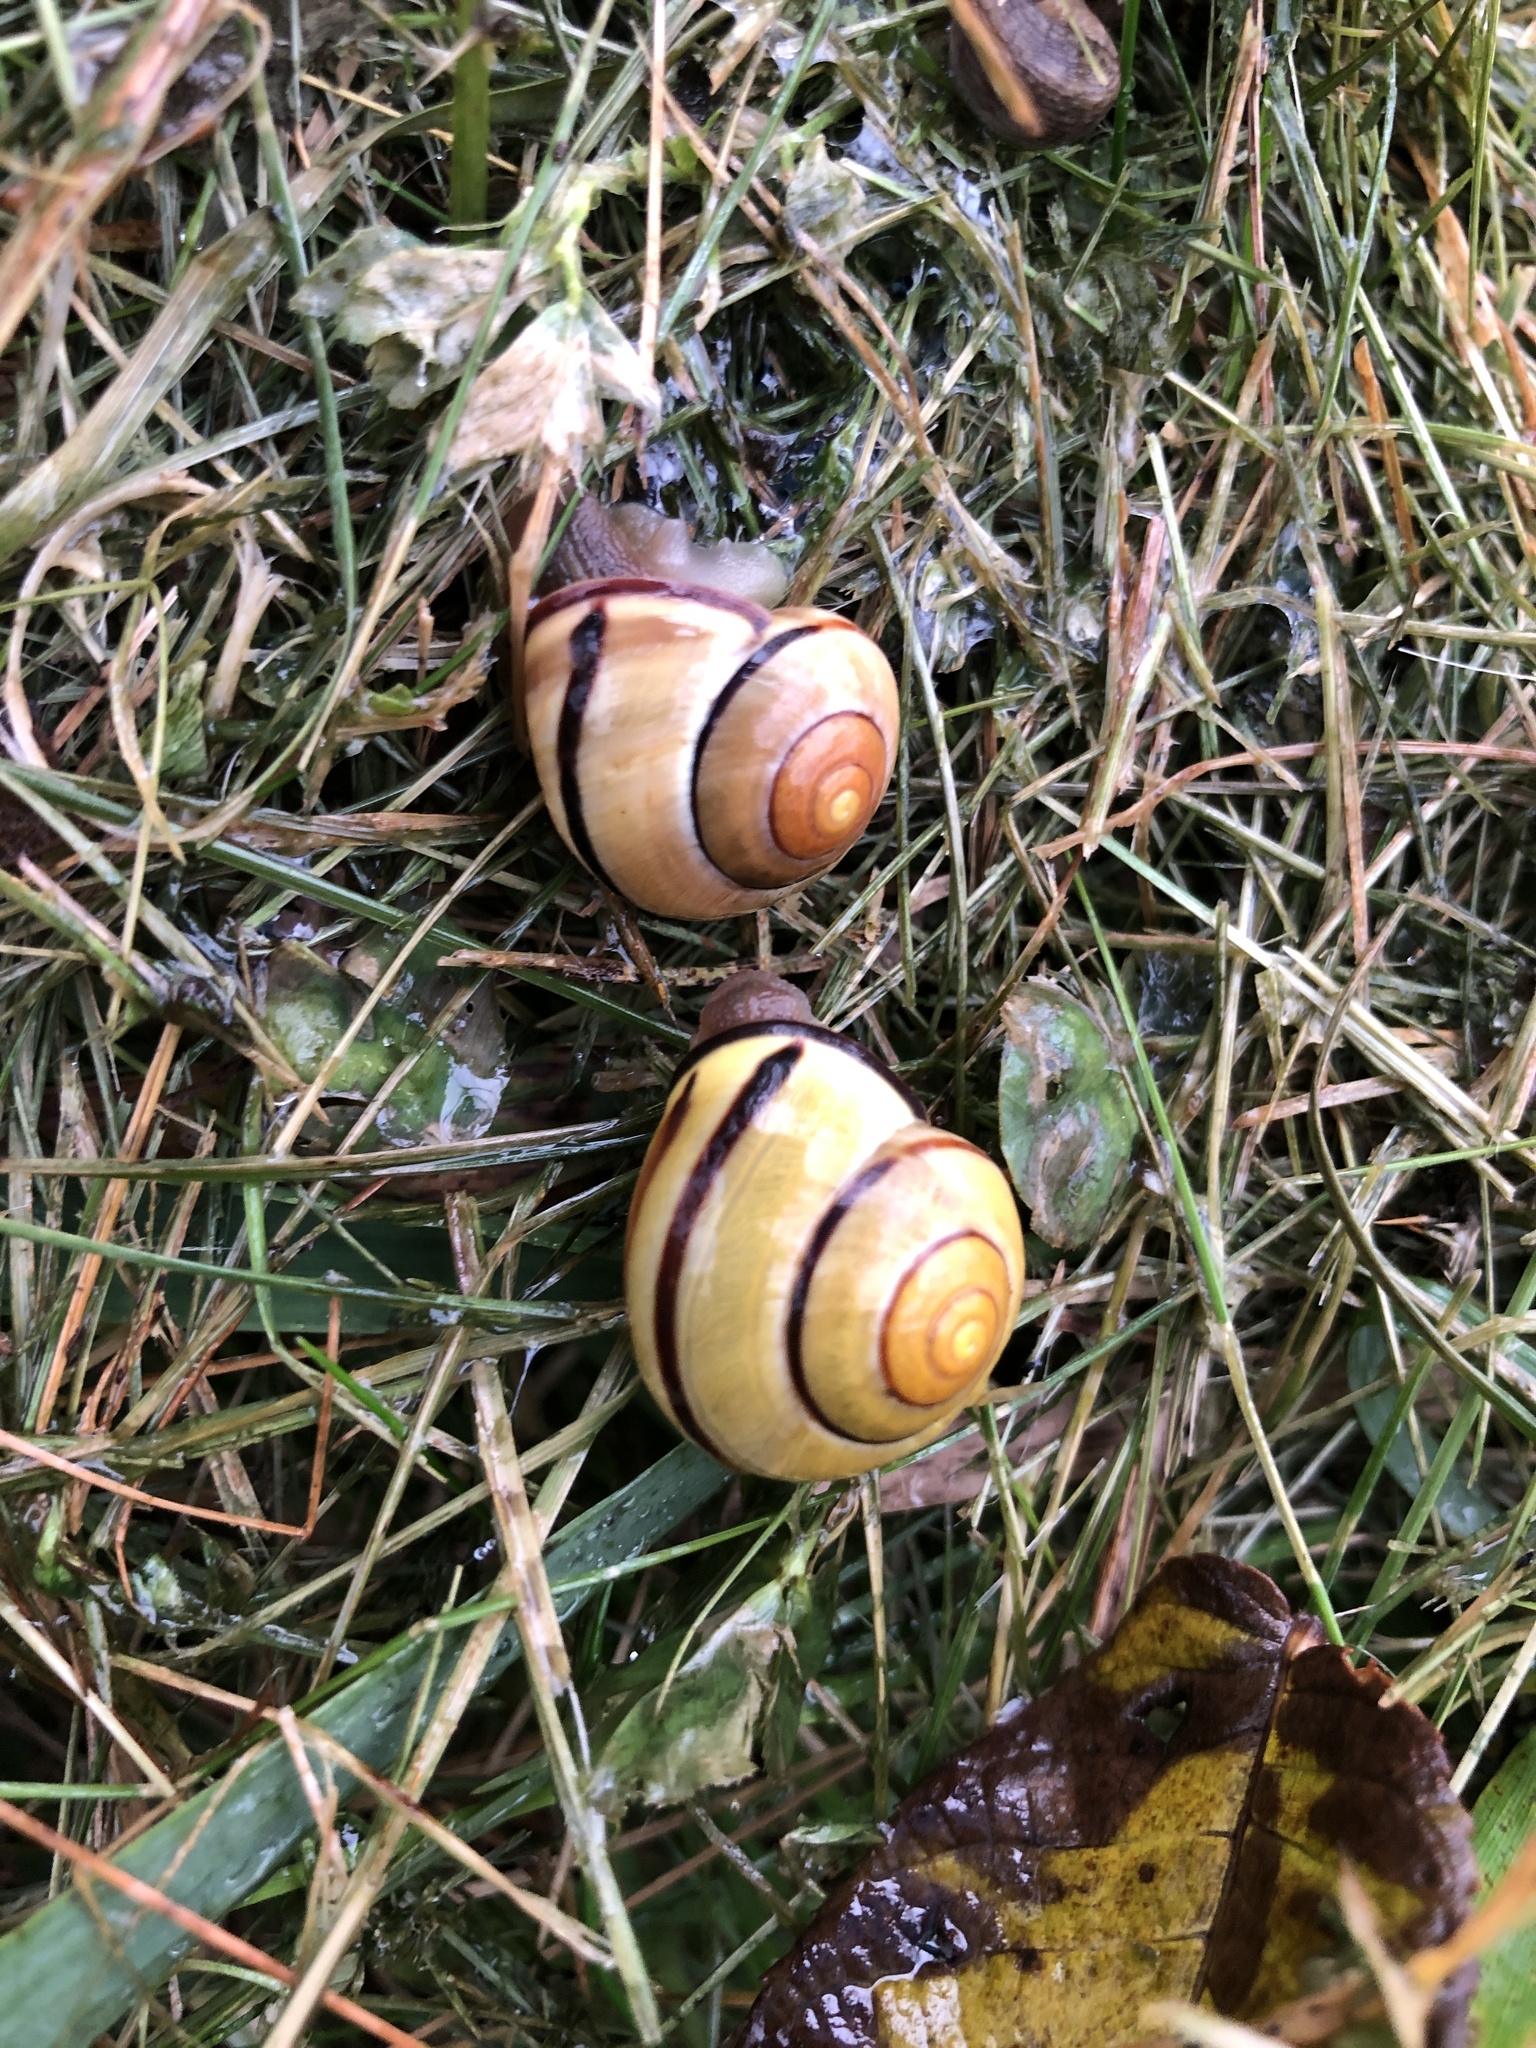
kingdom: Animalia
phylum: Mollusca
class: Gastropoda
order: Stylommatophora
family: Helicidae
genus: Cepaea
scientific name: Cepaea nemoralis
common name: Grovesnail
